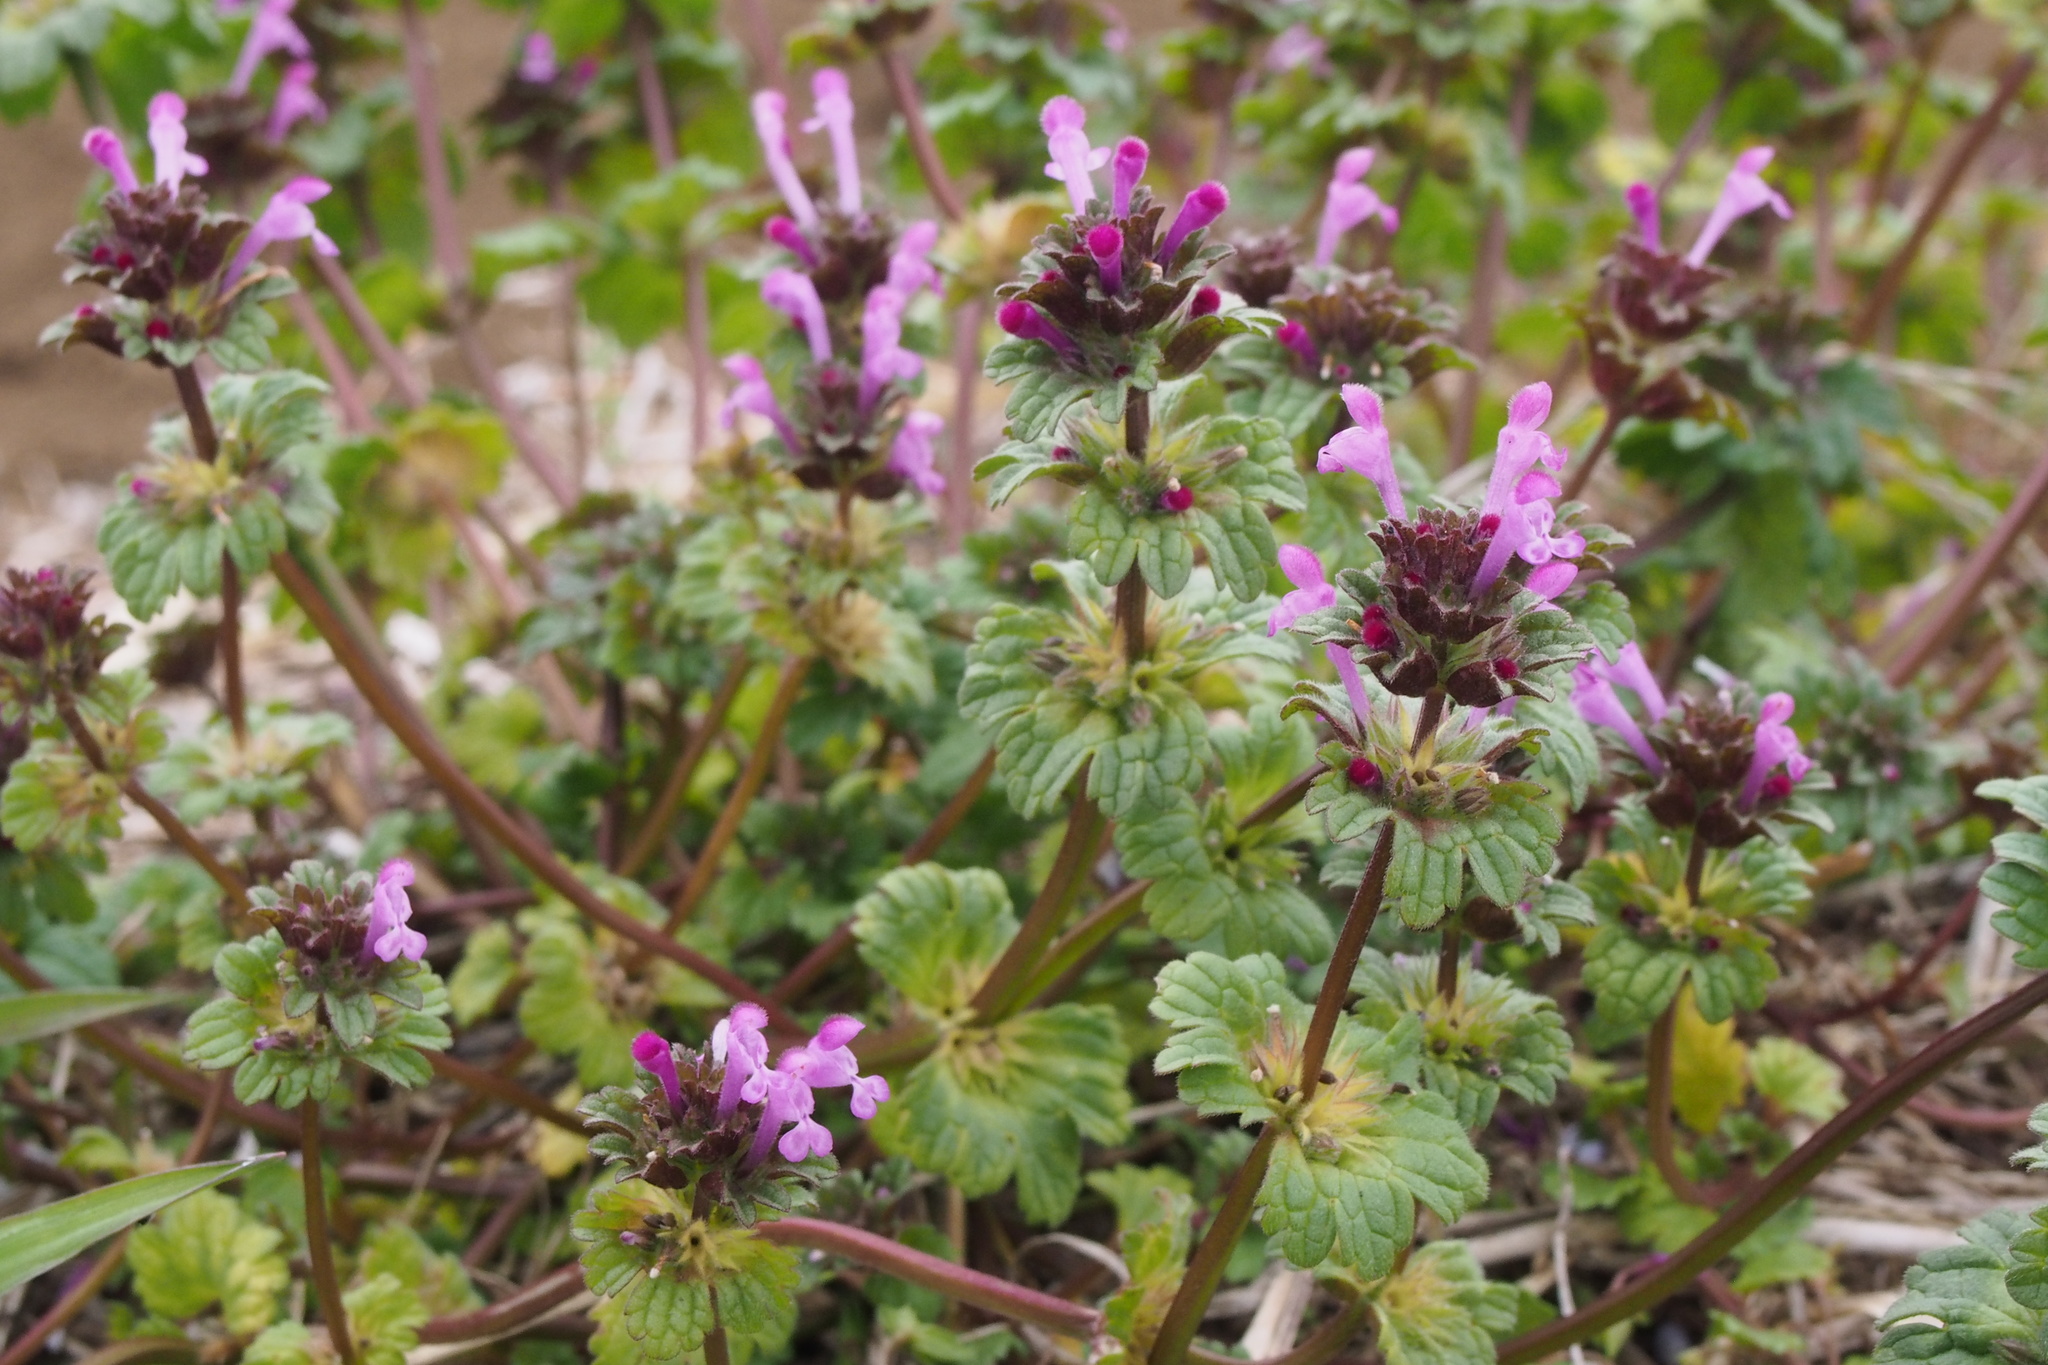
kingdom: Plantae
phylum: Tracheophyta
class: Magnoliopsida
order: Lamiales
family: Lamiaceae
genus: Lamium
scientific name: Lamium amplexicaule
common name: Henbit dead-nettle
